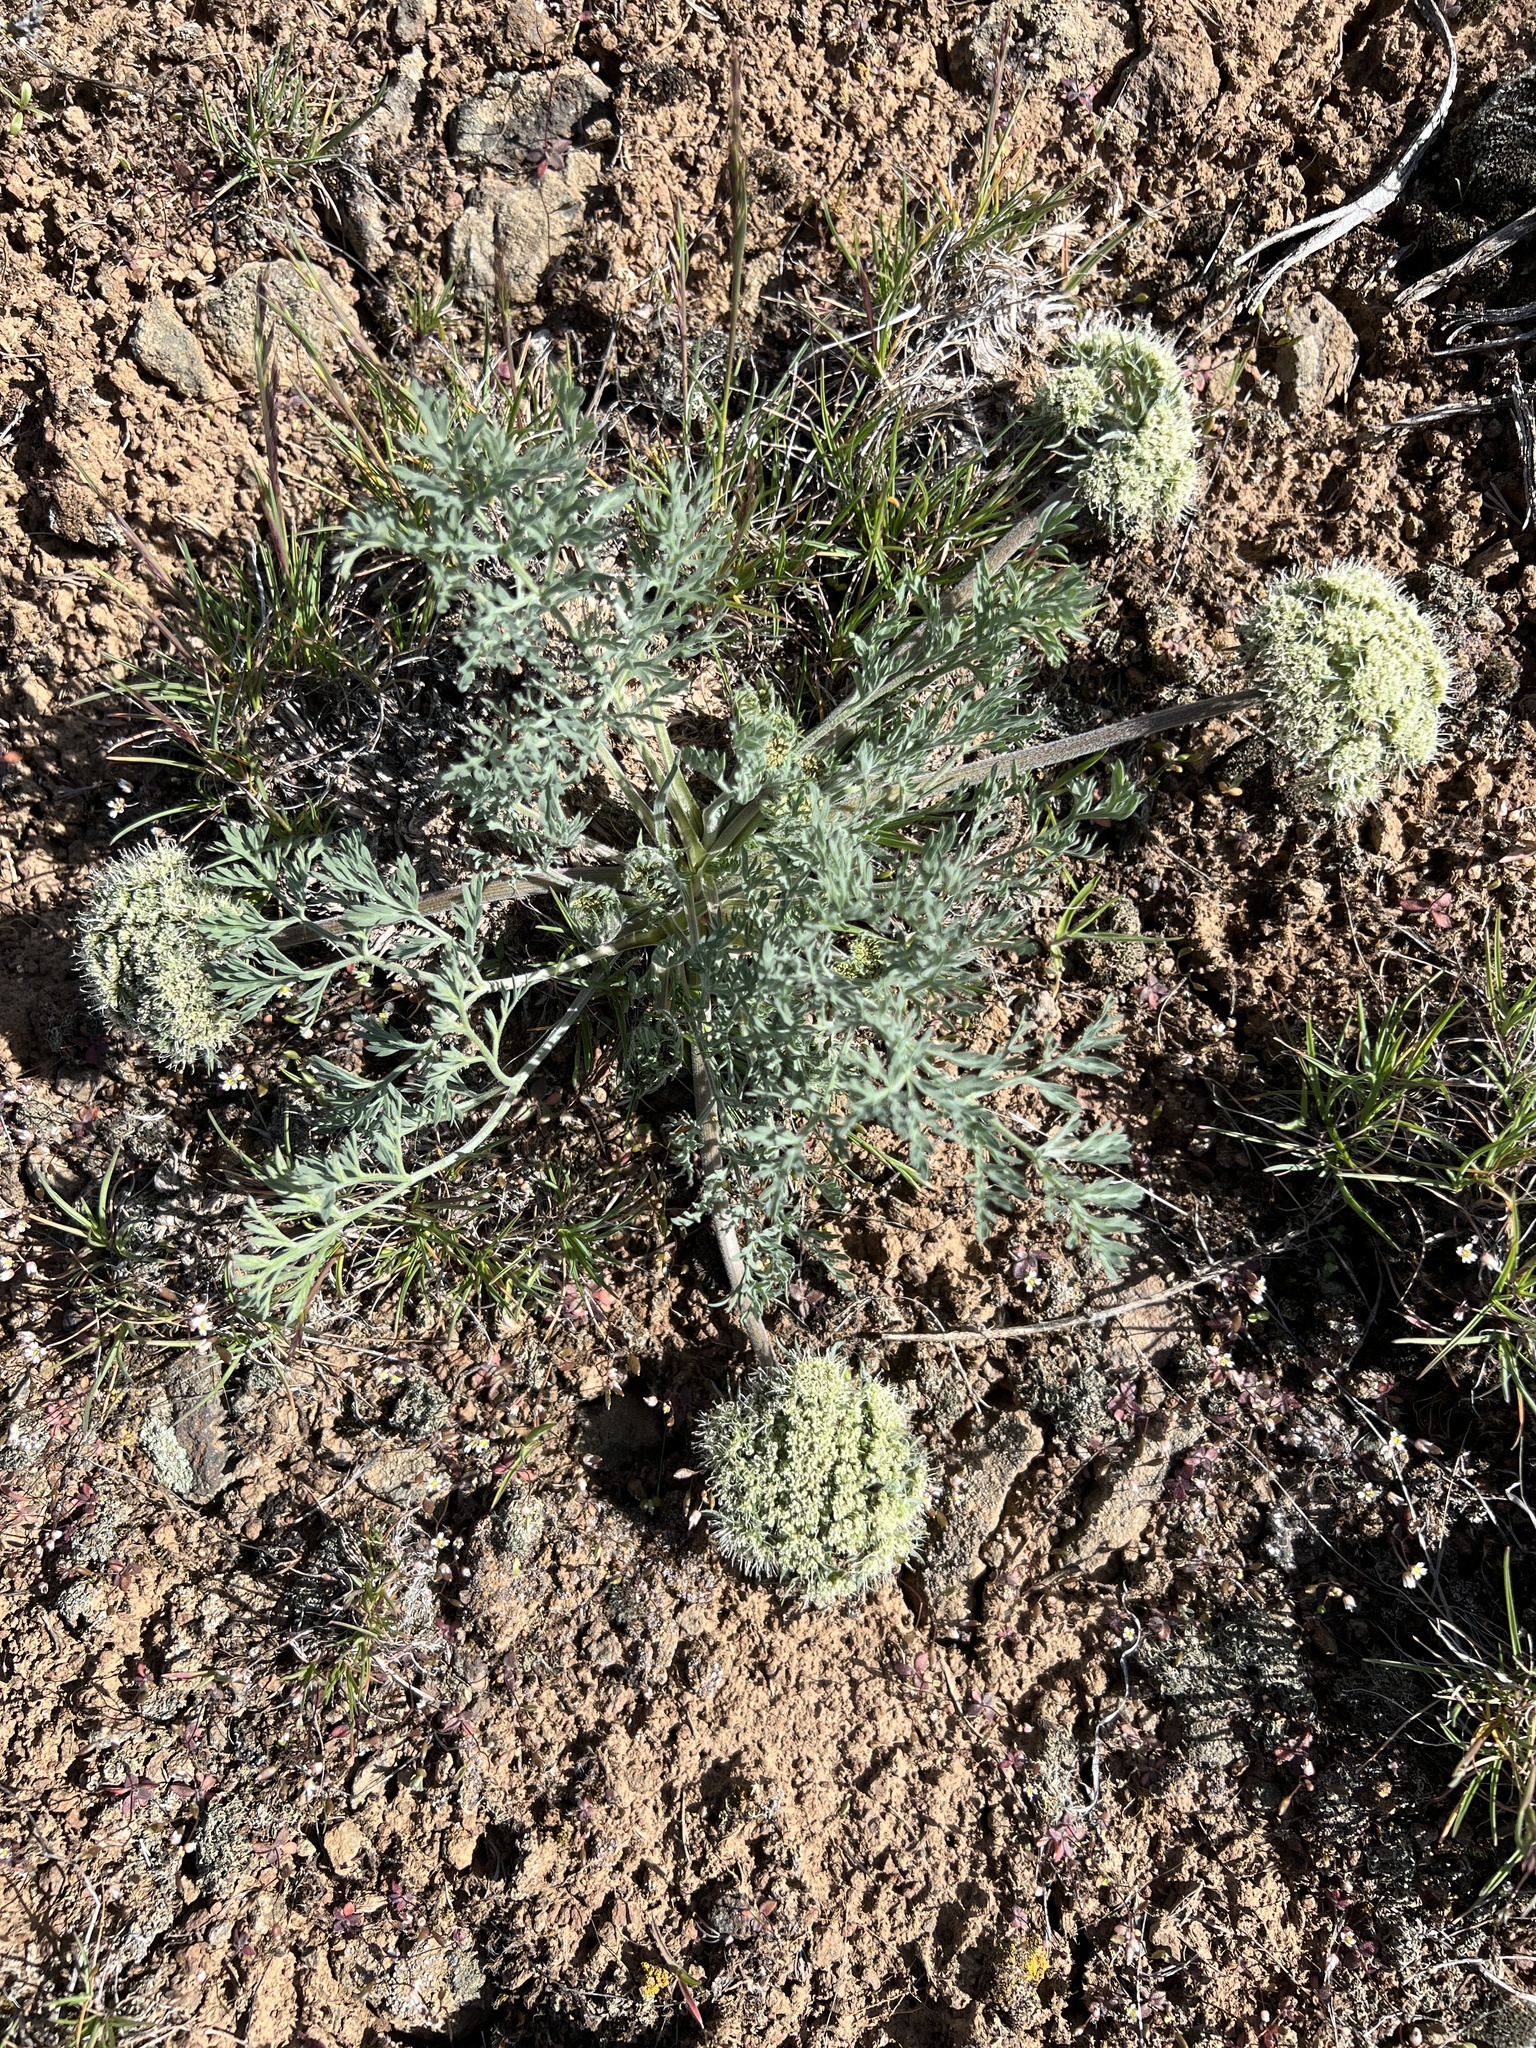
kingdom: Plantae
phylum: Tracheophyta
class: Magnoliopsida
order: Apiales
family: Apiaceae
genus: Lomatium
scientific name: Lomatium macrocarpum
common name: Big-seed biscuitroot
